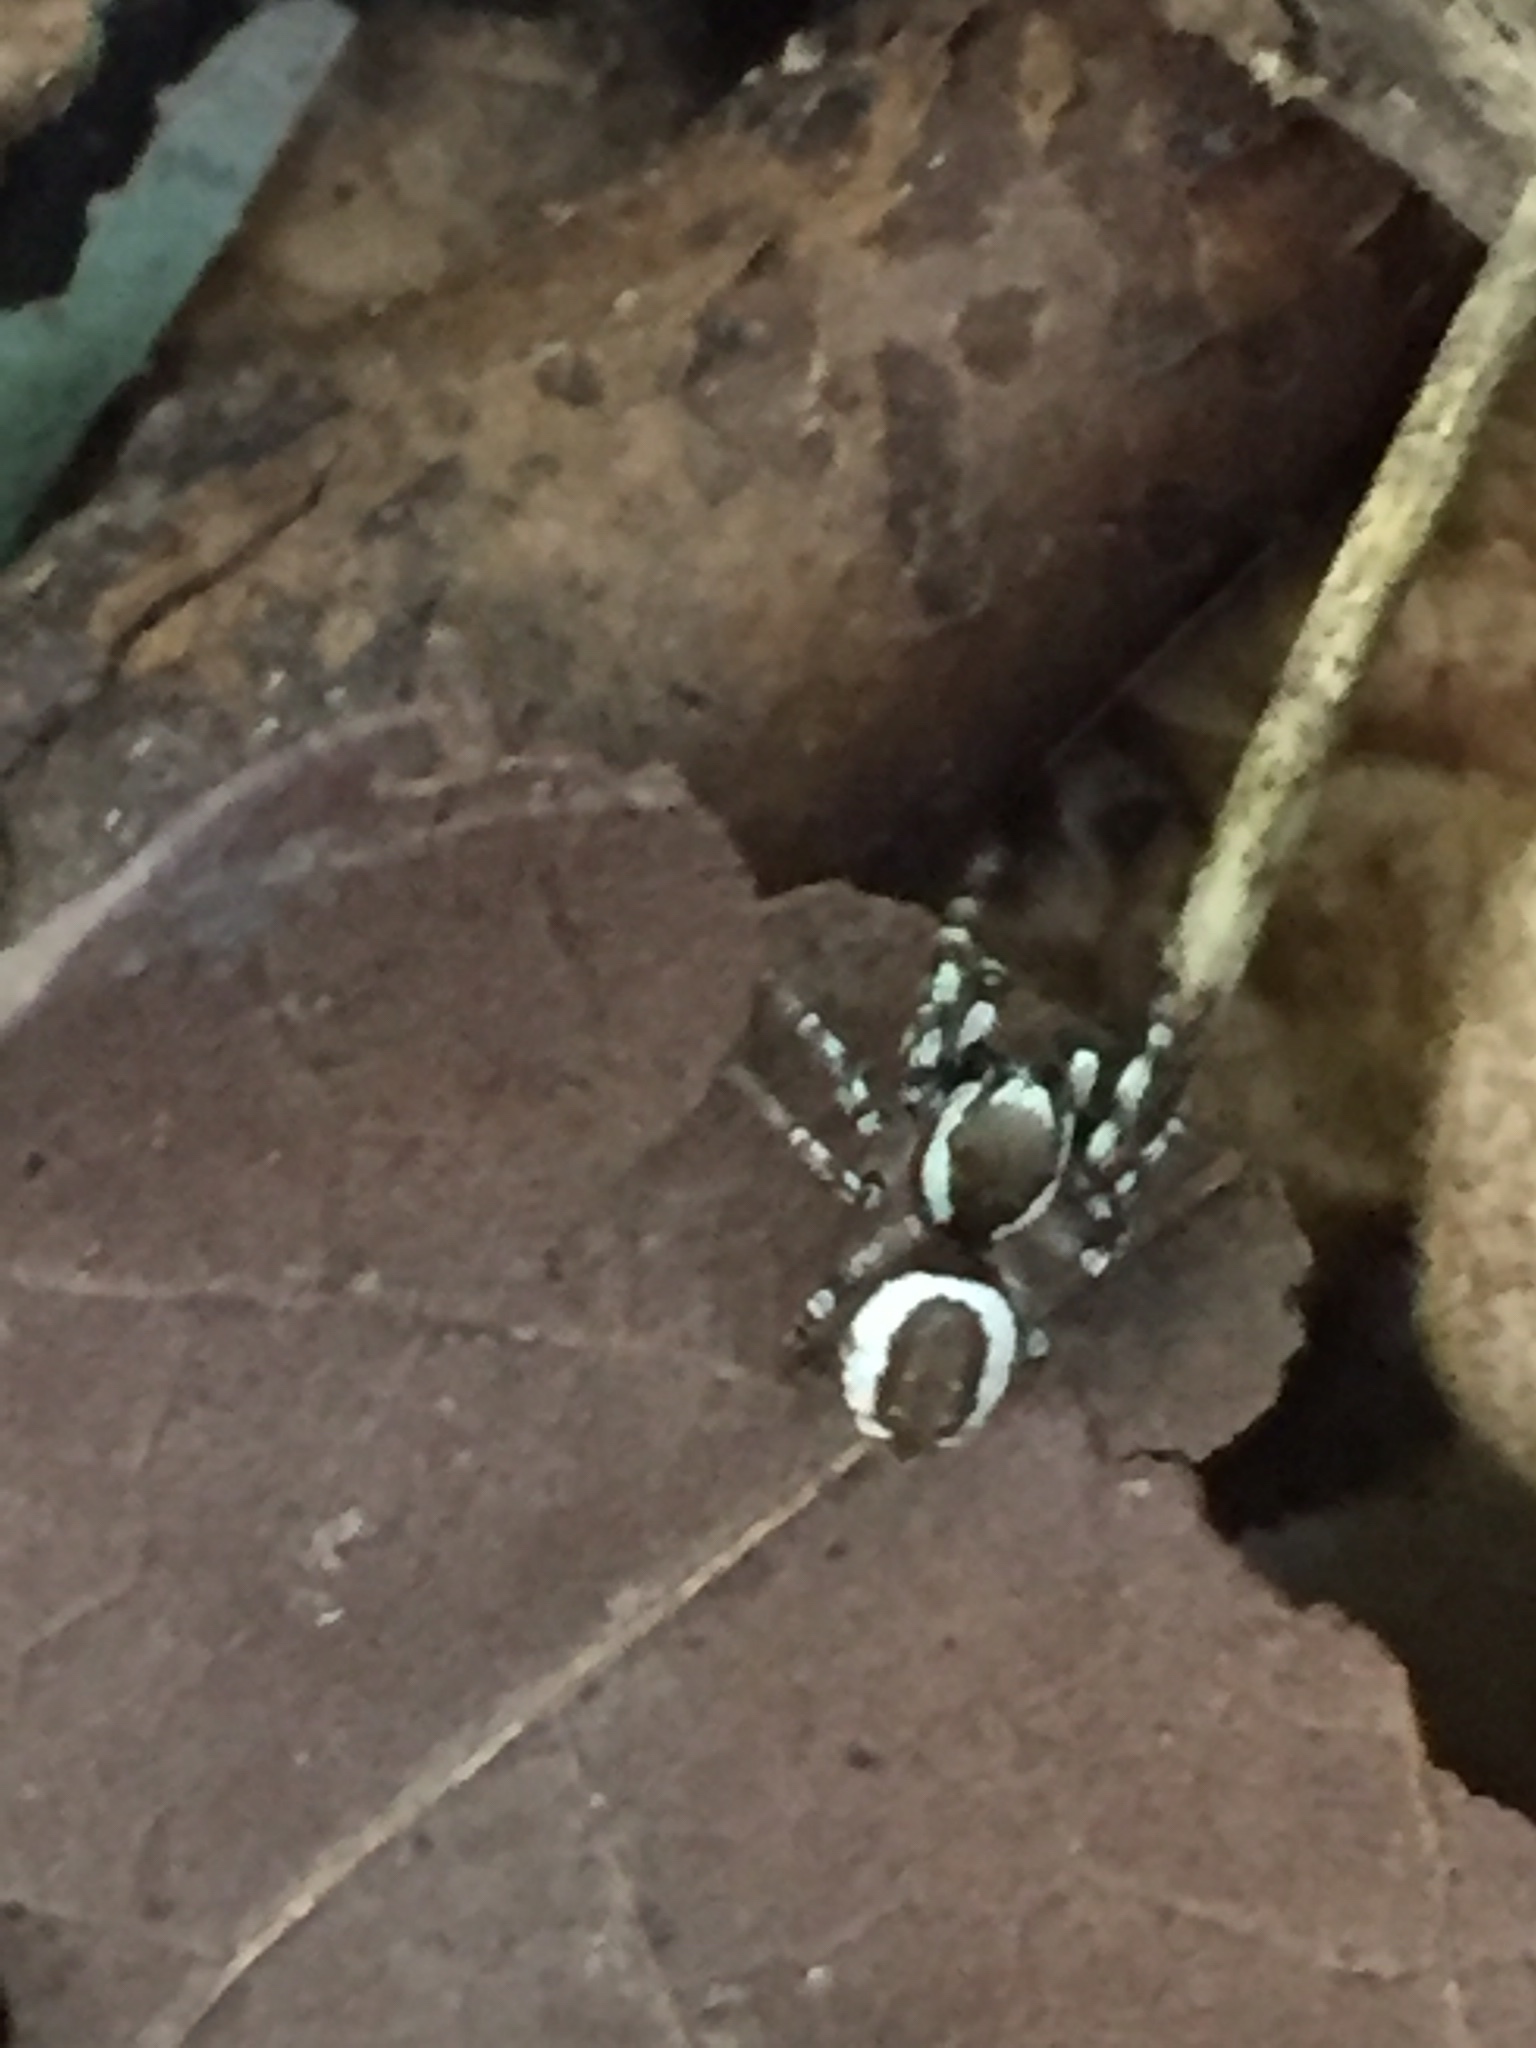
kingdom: Animalia
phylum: Arthropoda
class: Arachnida
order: Araneae
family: Salticidae
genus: Pelegrina
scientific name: Pelegrina proterva
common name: Common white-cheeked jumping spider
